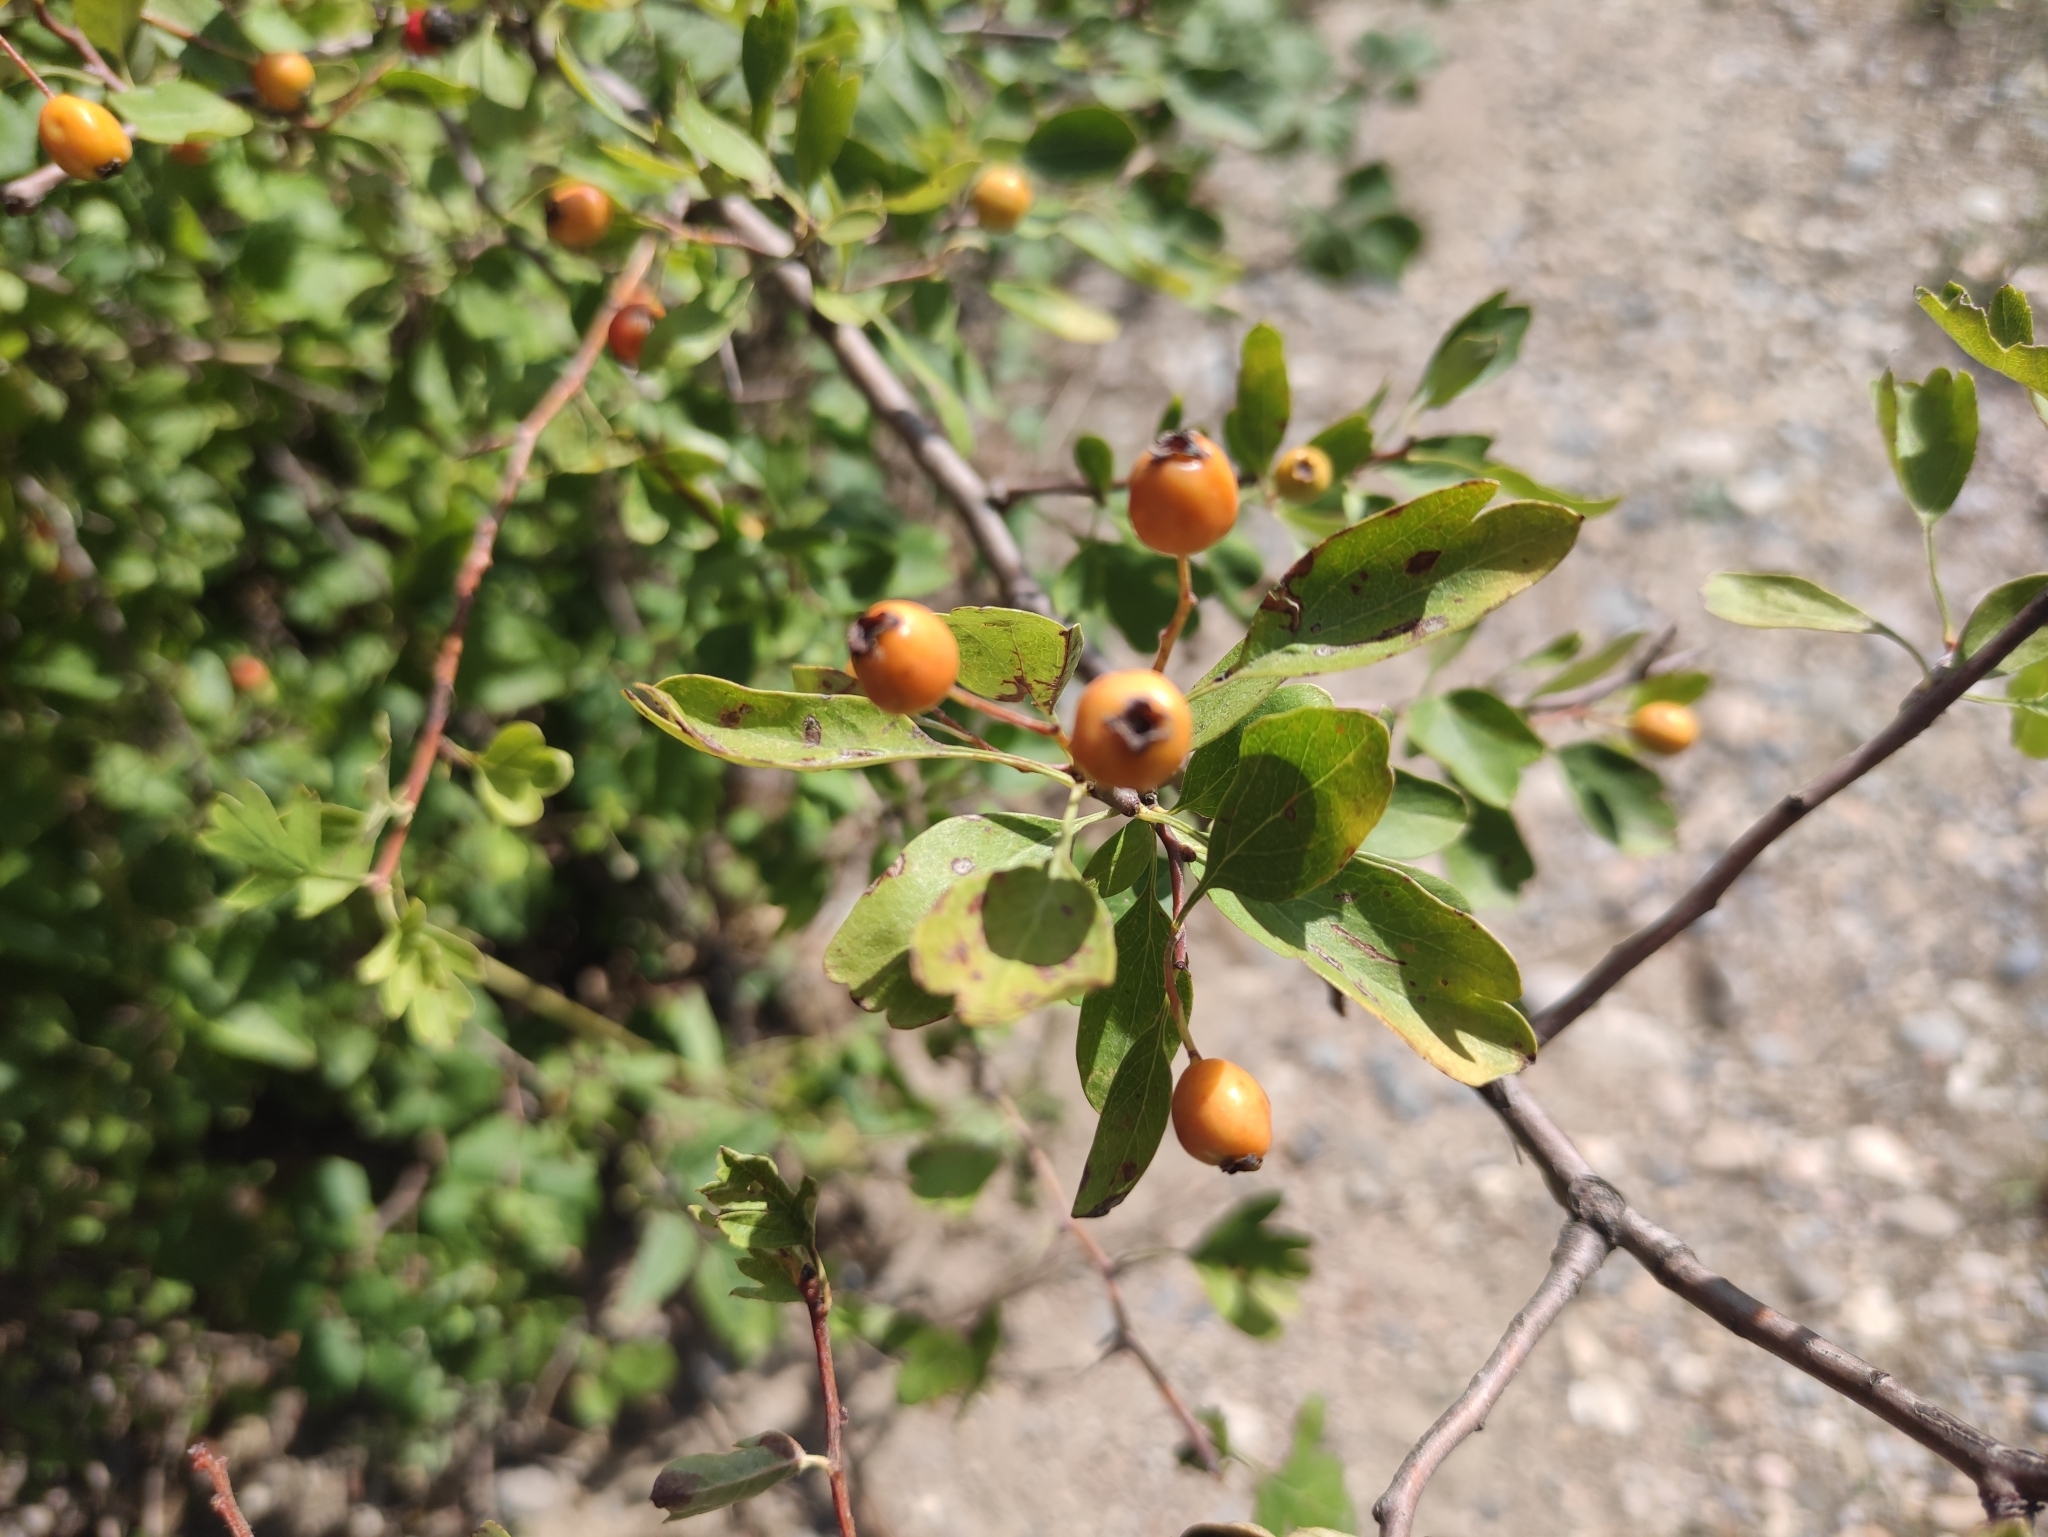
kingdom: Plantae
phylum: Tracheophyta
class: Magnoliopsida
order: Rosales
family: Rosaceae
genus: Crataegus
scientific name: Crataegus monogyna
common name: Hawthorn
